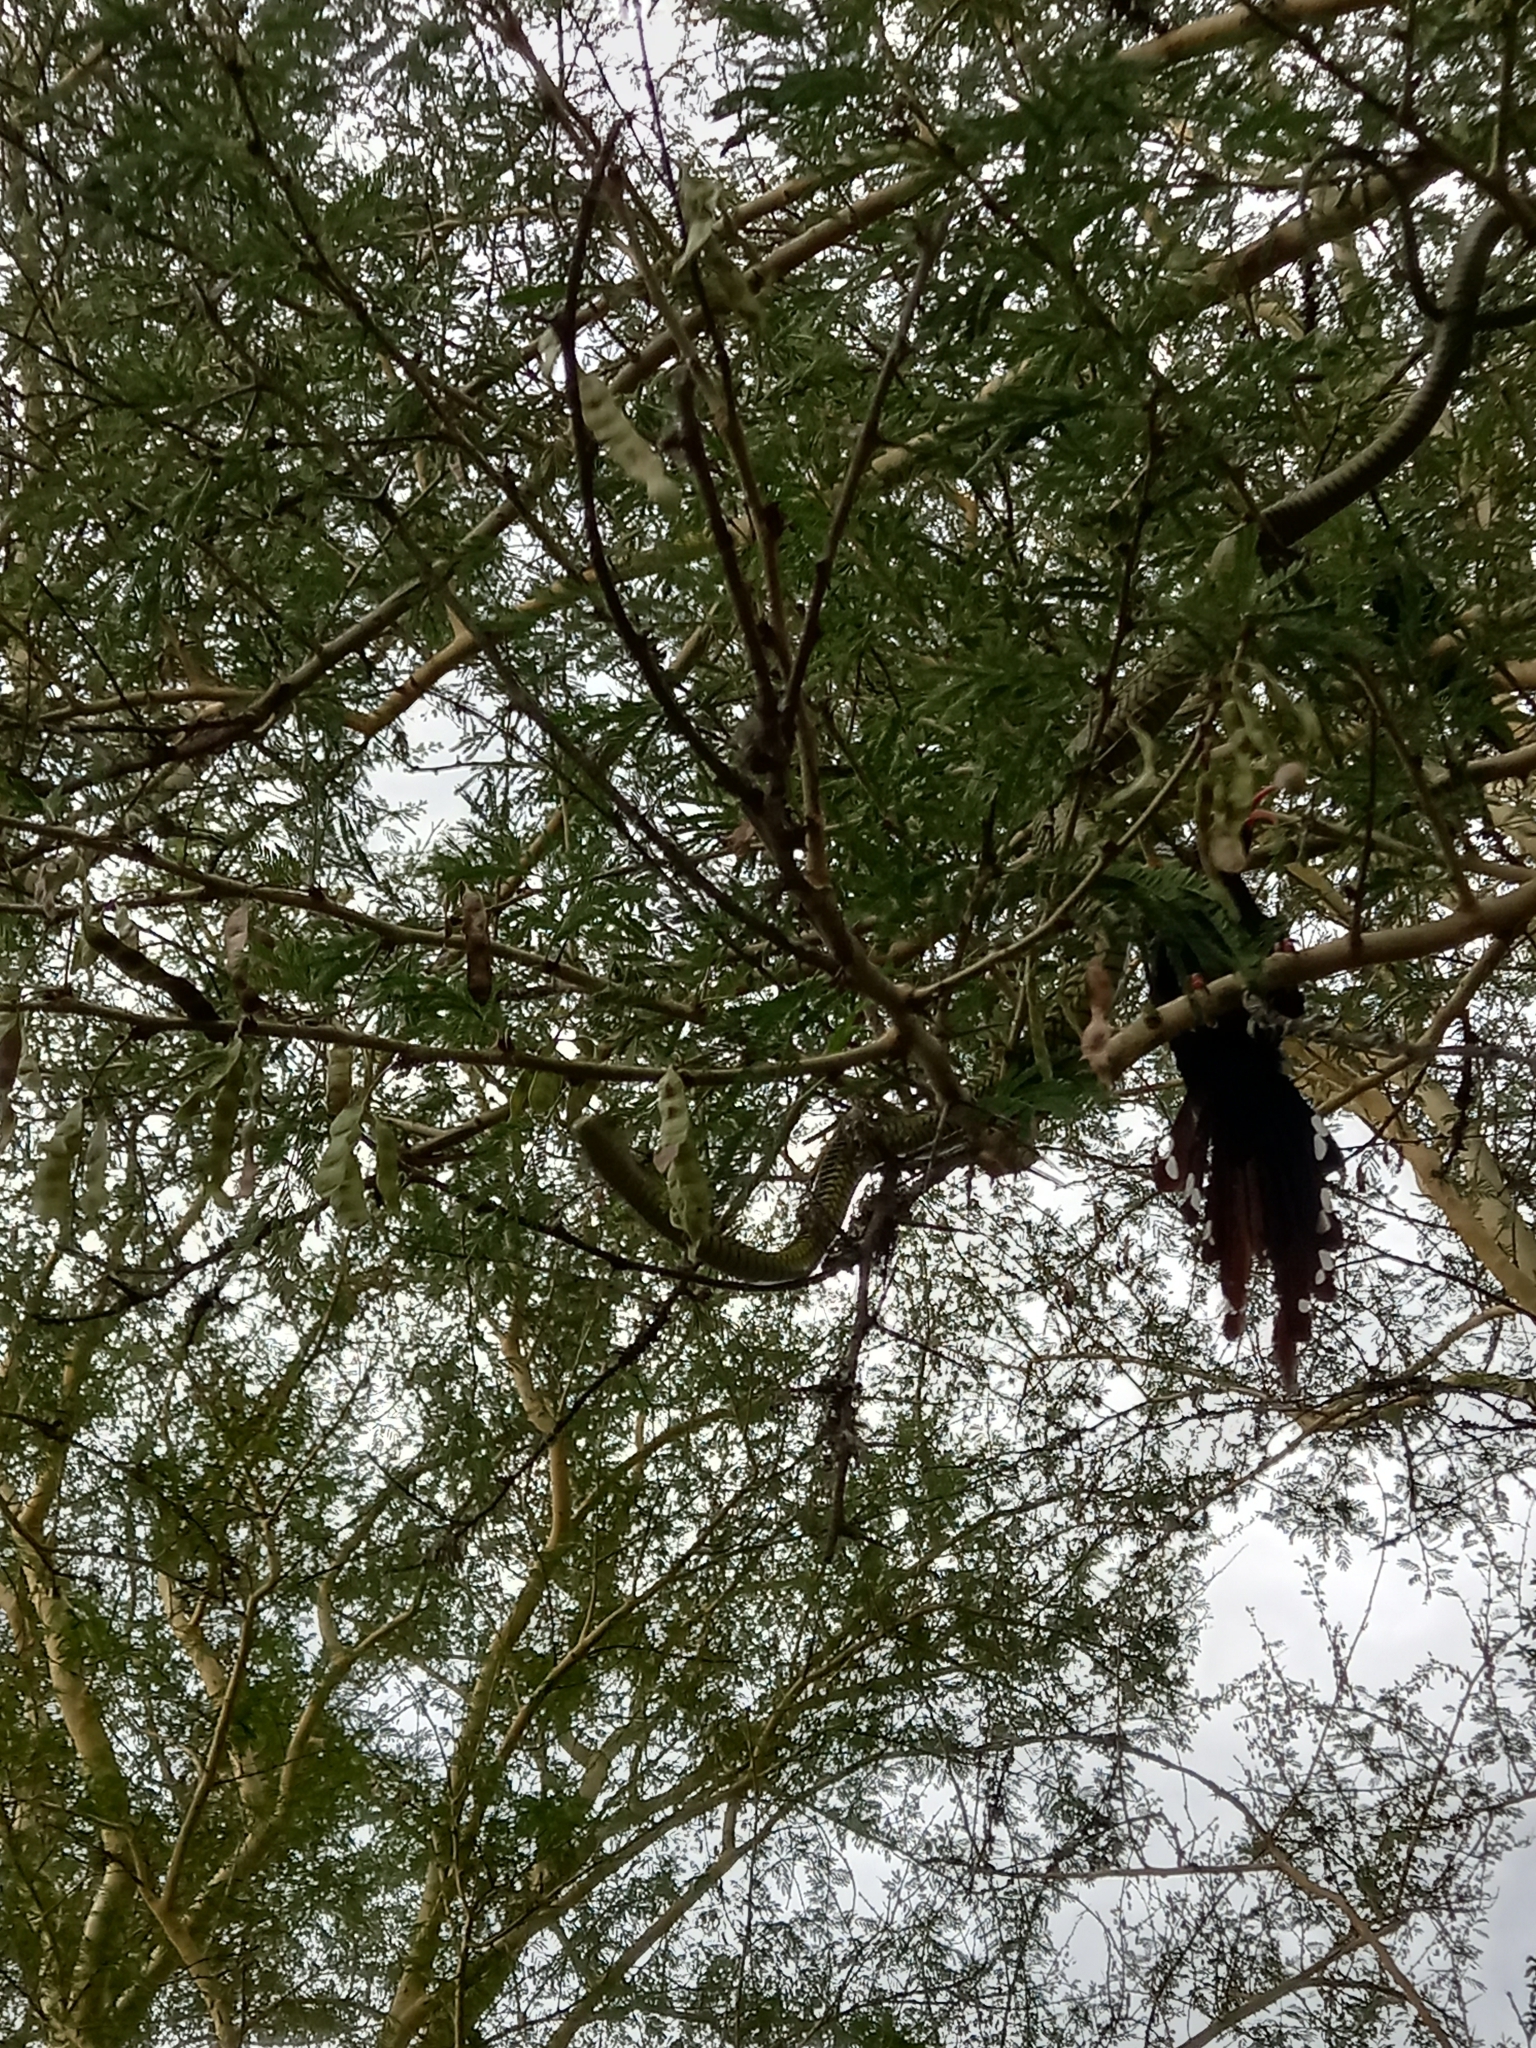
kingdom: Animalia
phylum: Chordata
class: Squamata
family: Colubridae
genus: Dispholidus
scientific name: Dispholidus typus
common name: Boomslang
